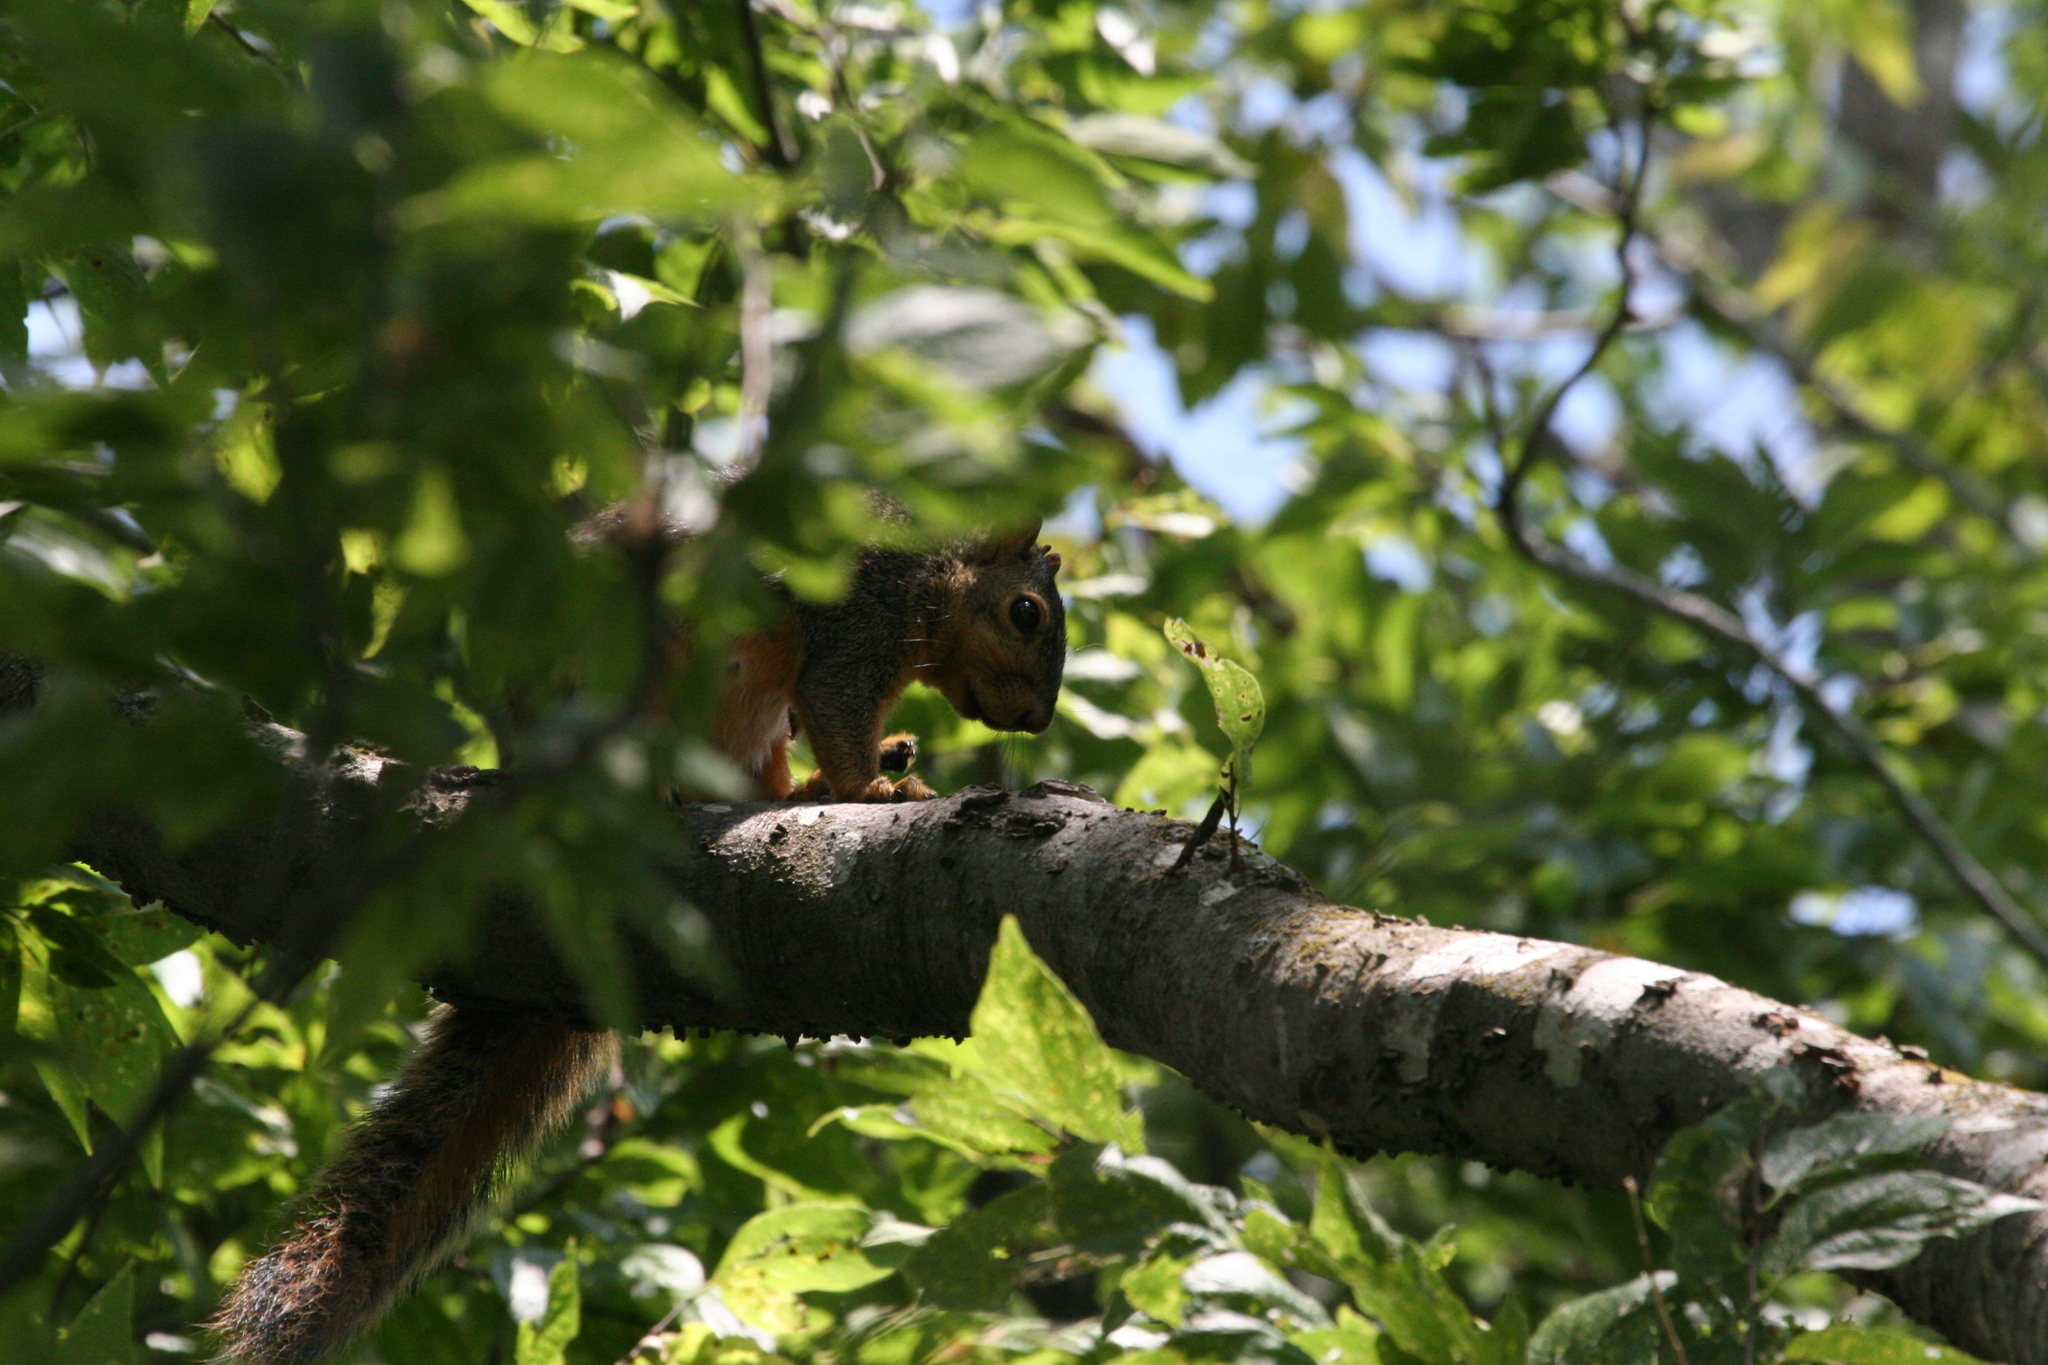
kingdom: Animalia
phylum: Chordata
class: Mammalia
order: Rodentia
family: Sciuridae
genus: Sciurus
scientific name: Sciurus niger
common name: Fox squirrel
